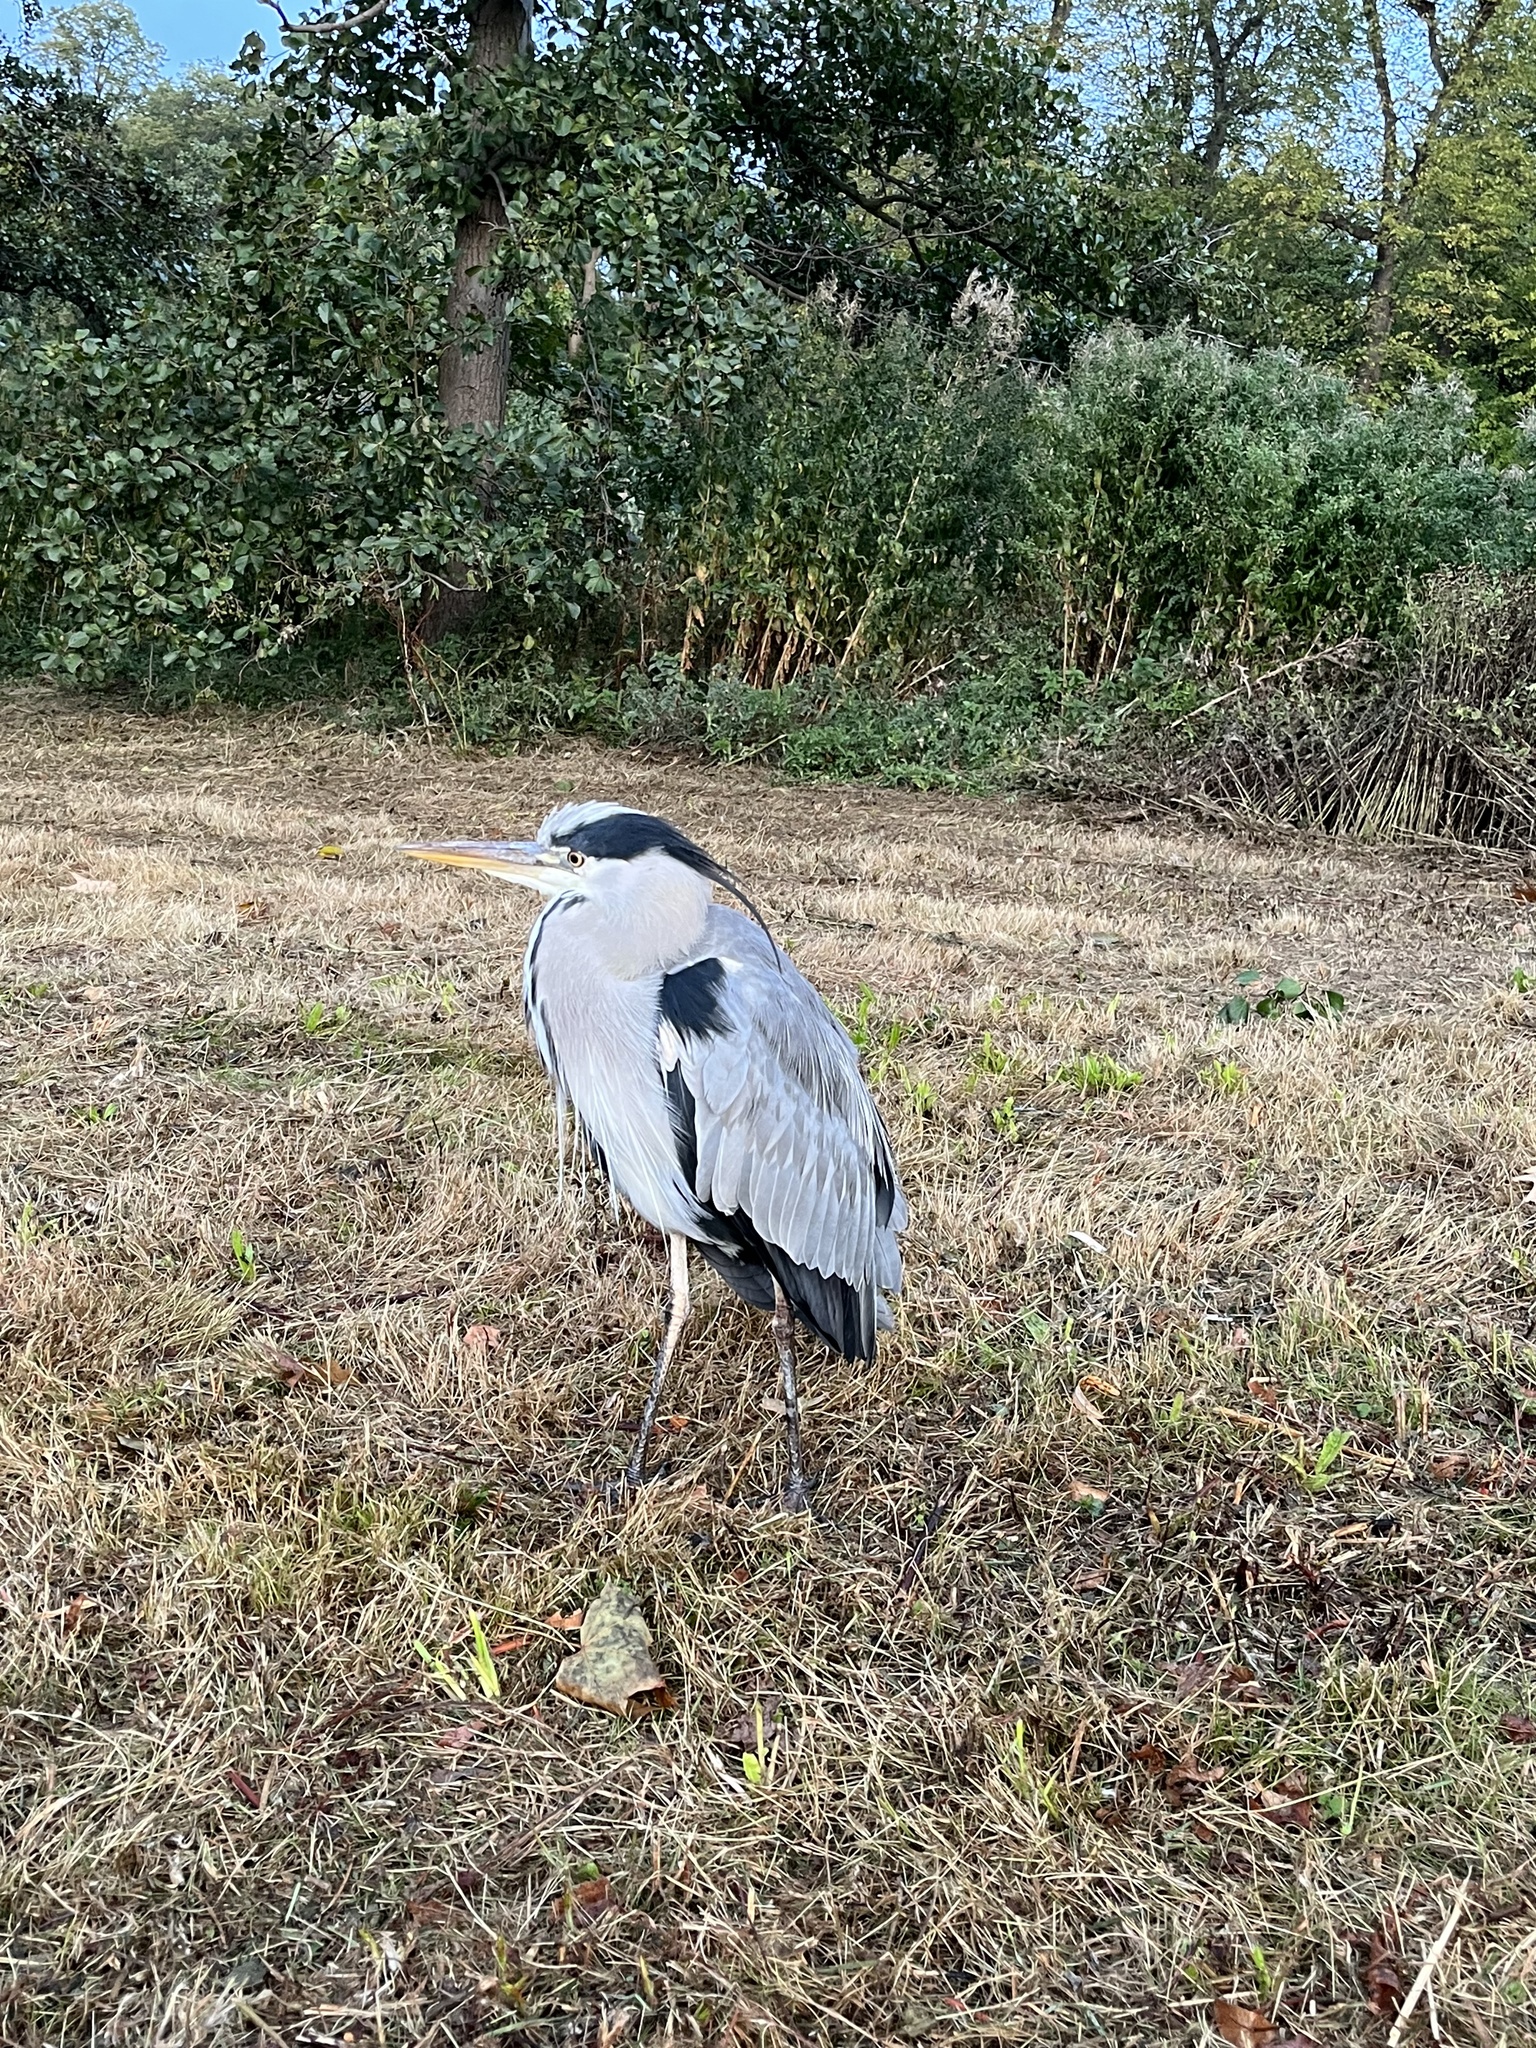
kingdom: Animalia
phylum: Chordata
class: Aves
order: Pelecaniformes
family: Ardeidae
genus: Ardea
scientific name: Ardea cinerea
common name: Grey heron
